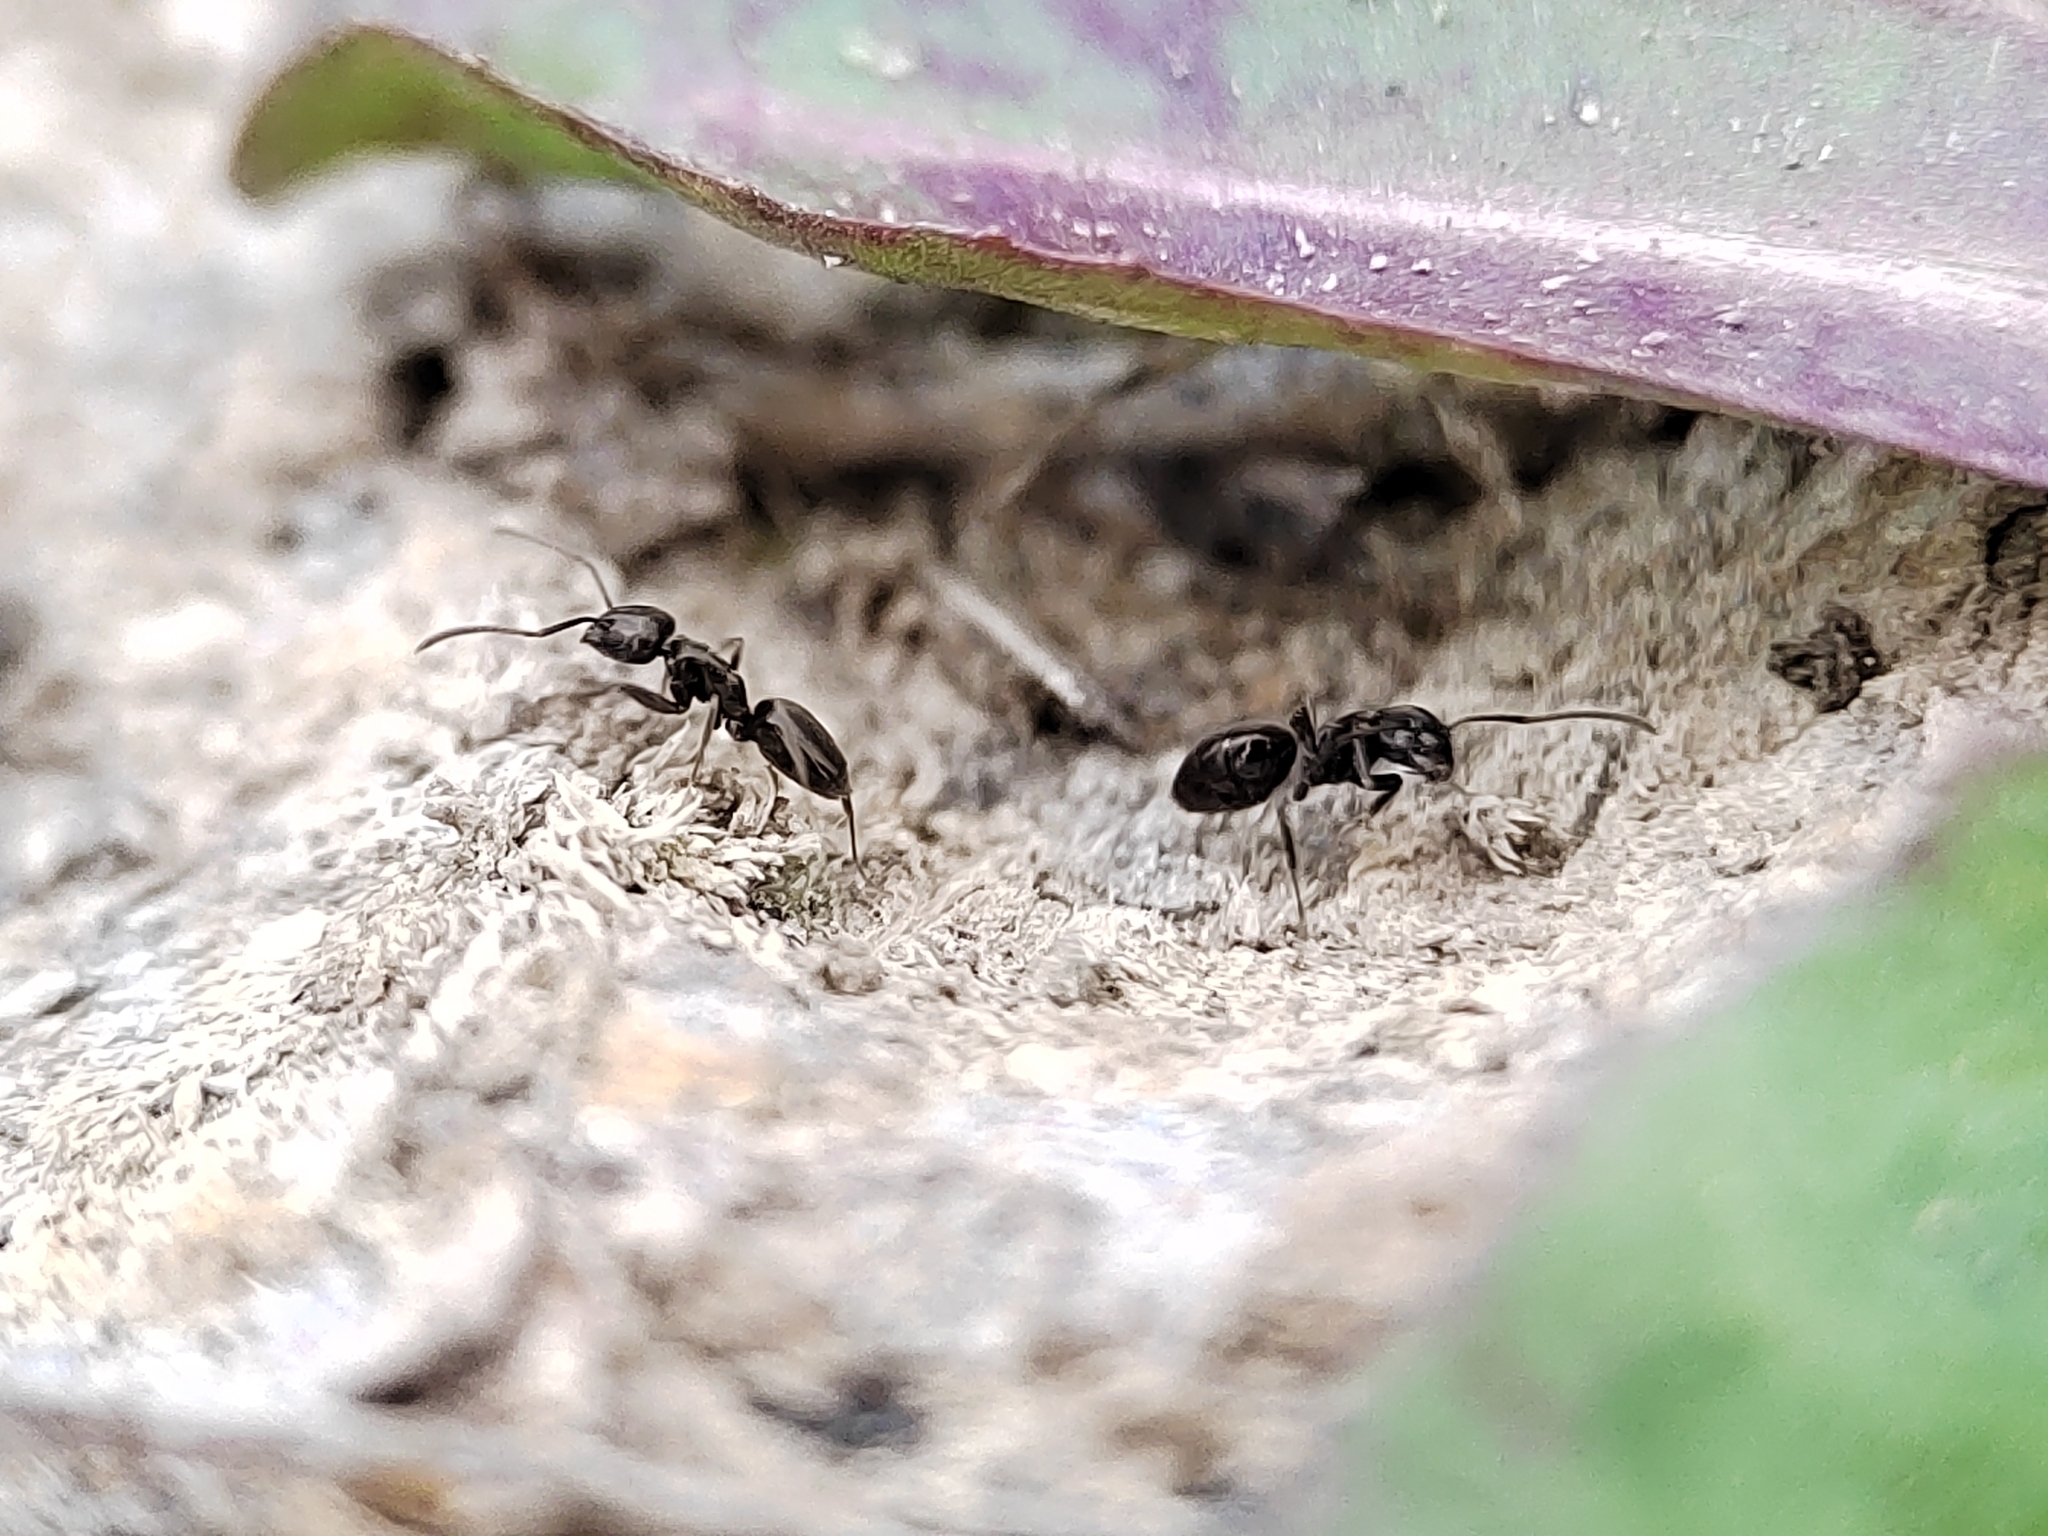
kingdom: Animalia
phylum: Arthropoda
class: Insecta
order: Hymenoptera
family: Formicidae
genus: Tapinoma
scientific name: Tapinoma
